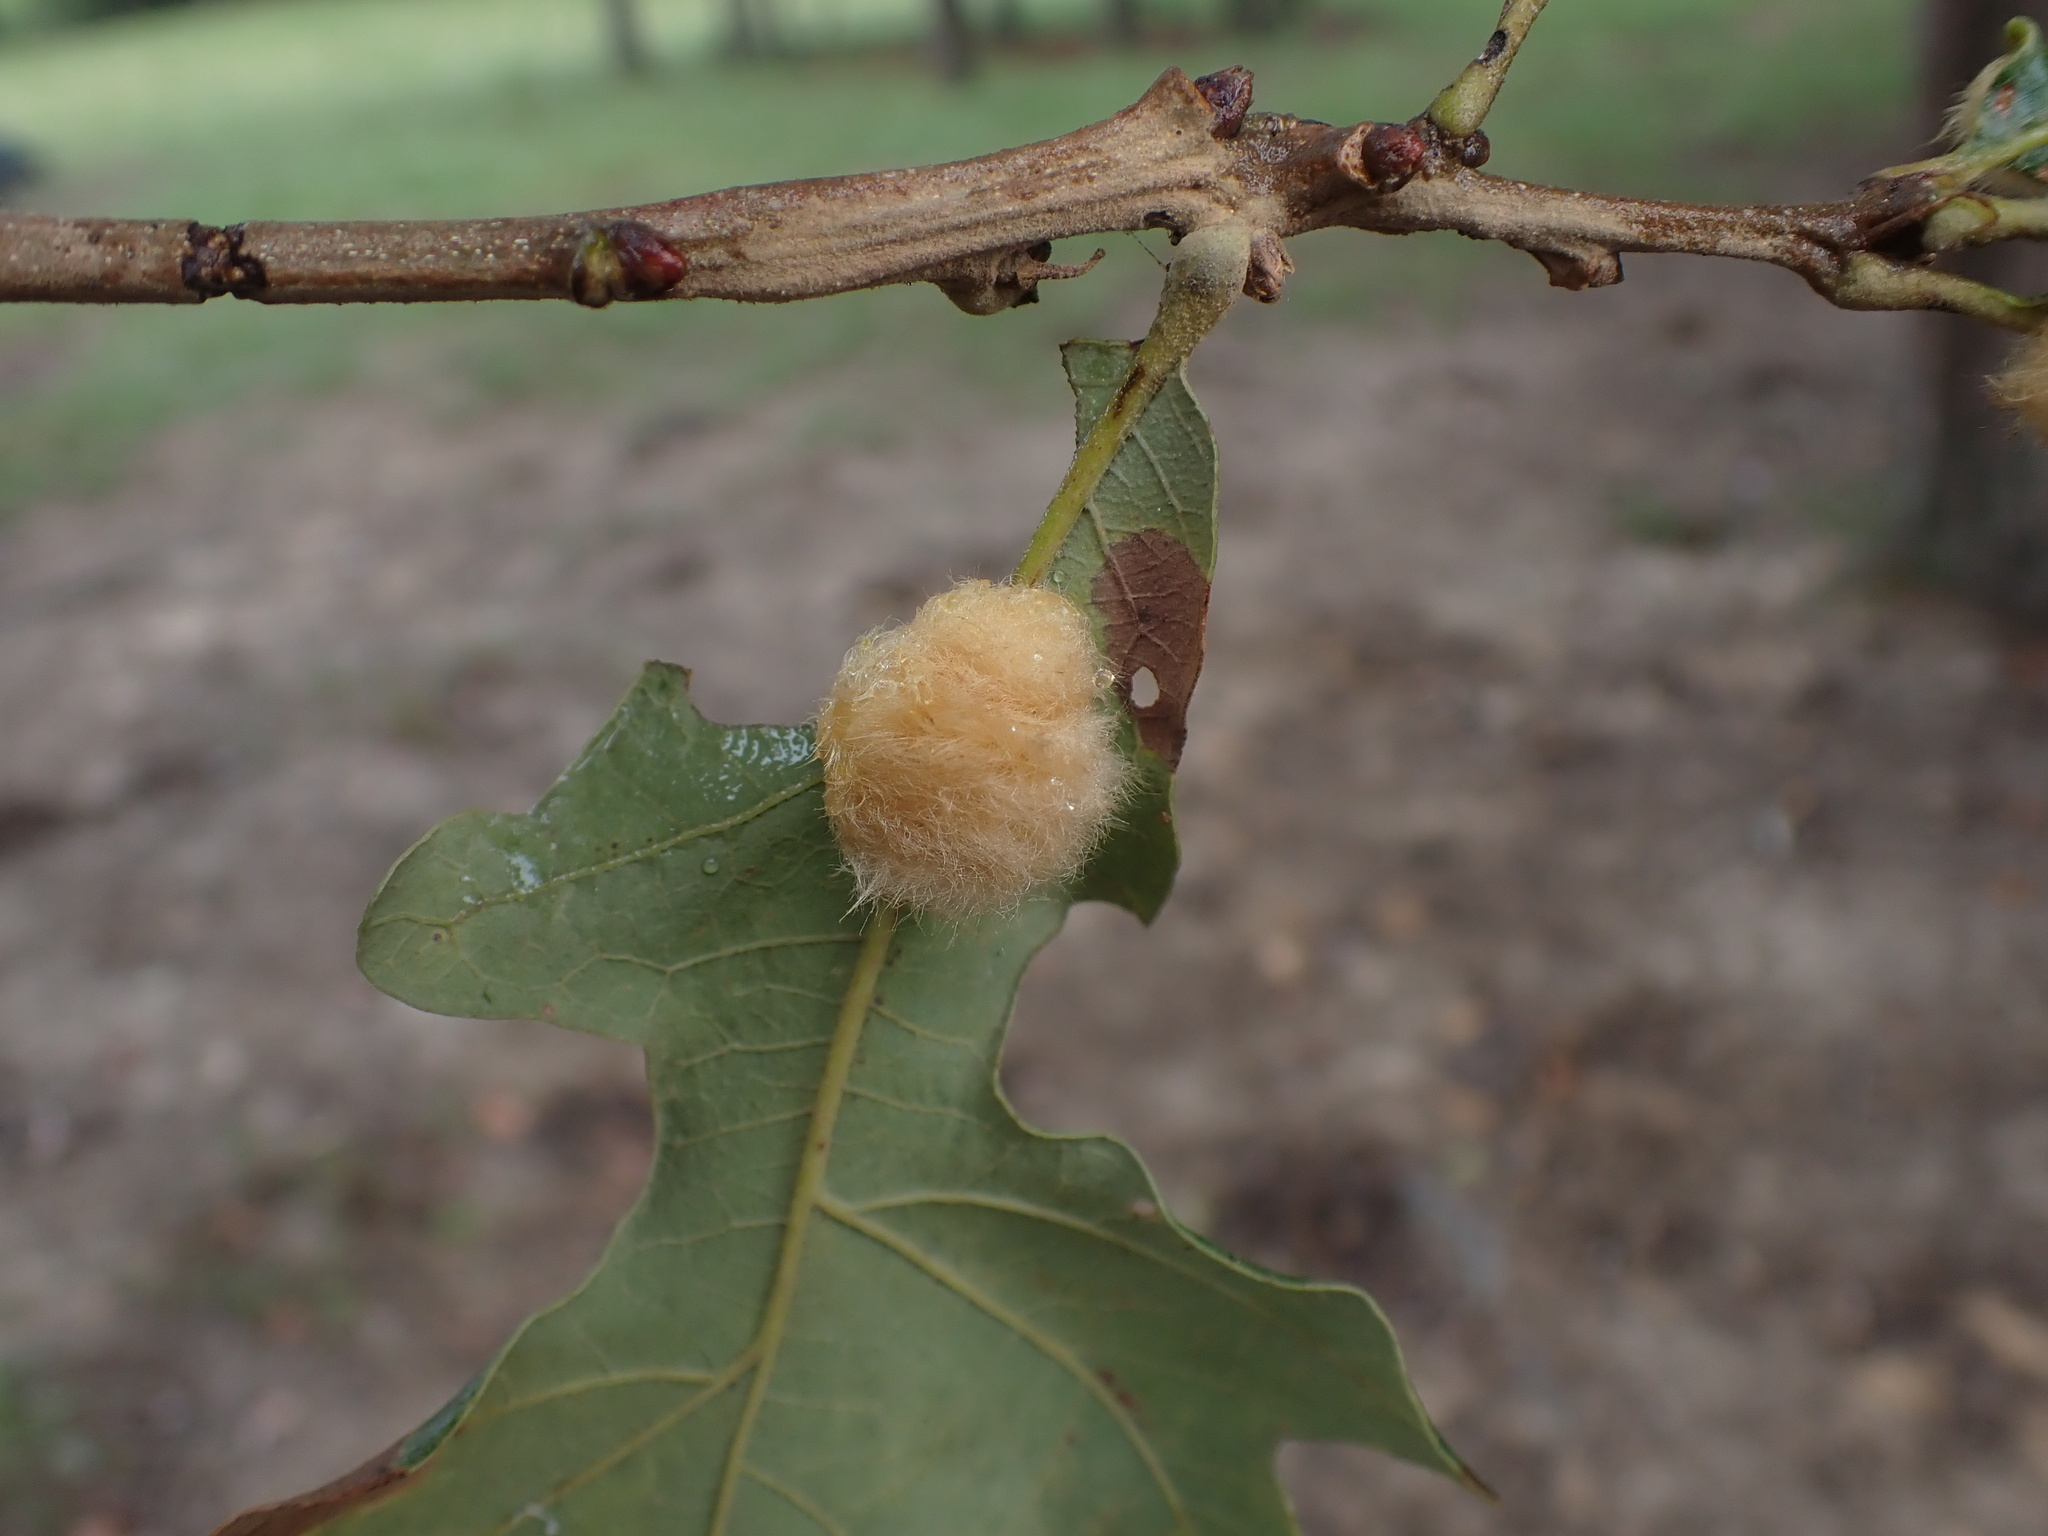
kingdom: Animalia
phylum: Arthropoda
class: Insecta
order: Hymenoptera
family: Cynipidae
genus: Andricus
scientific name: Andricus Druon pattoni
